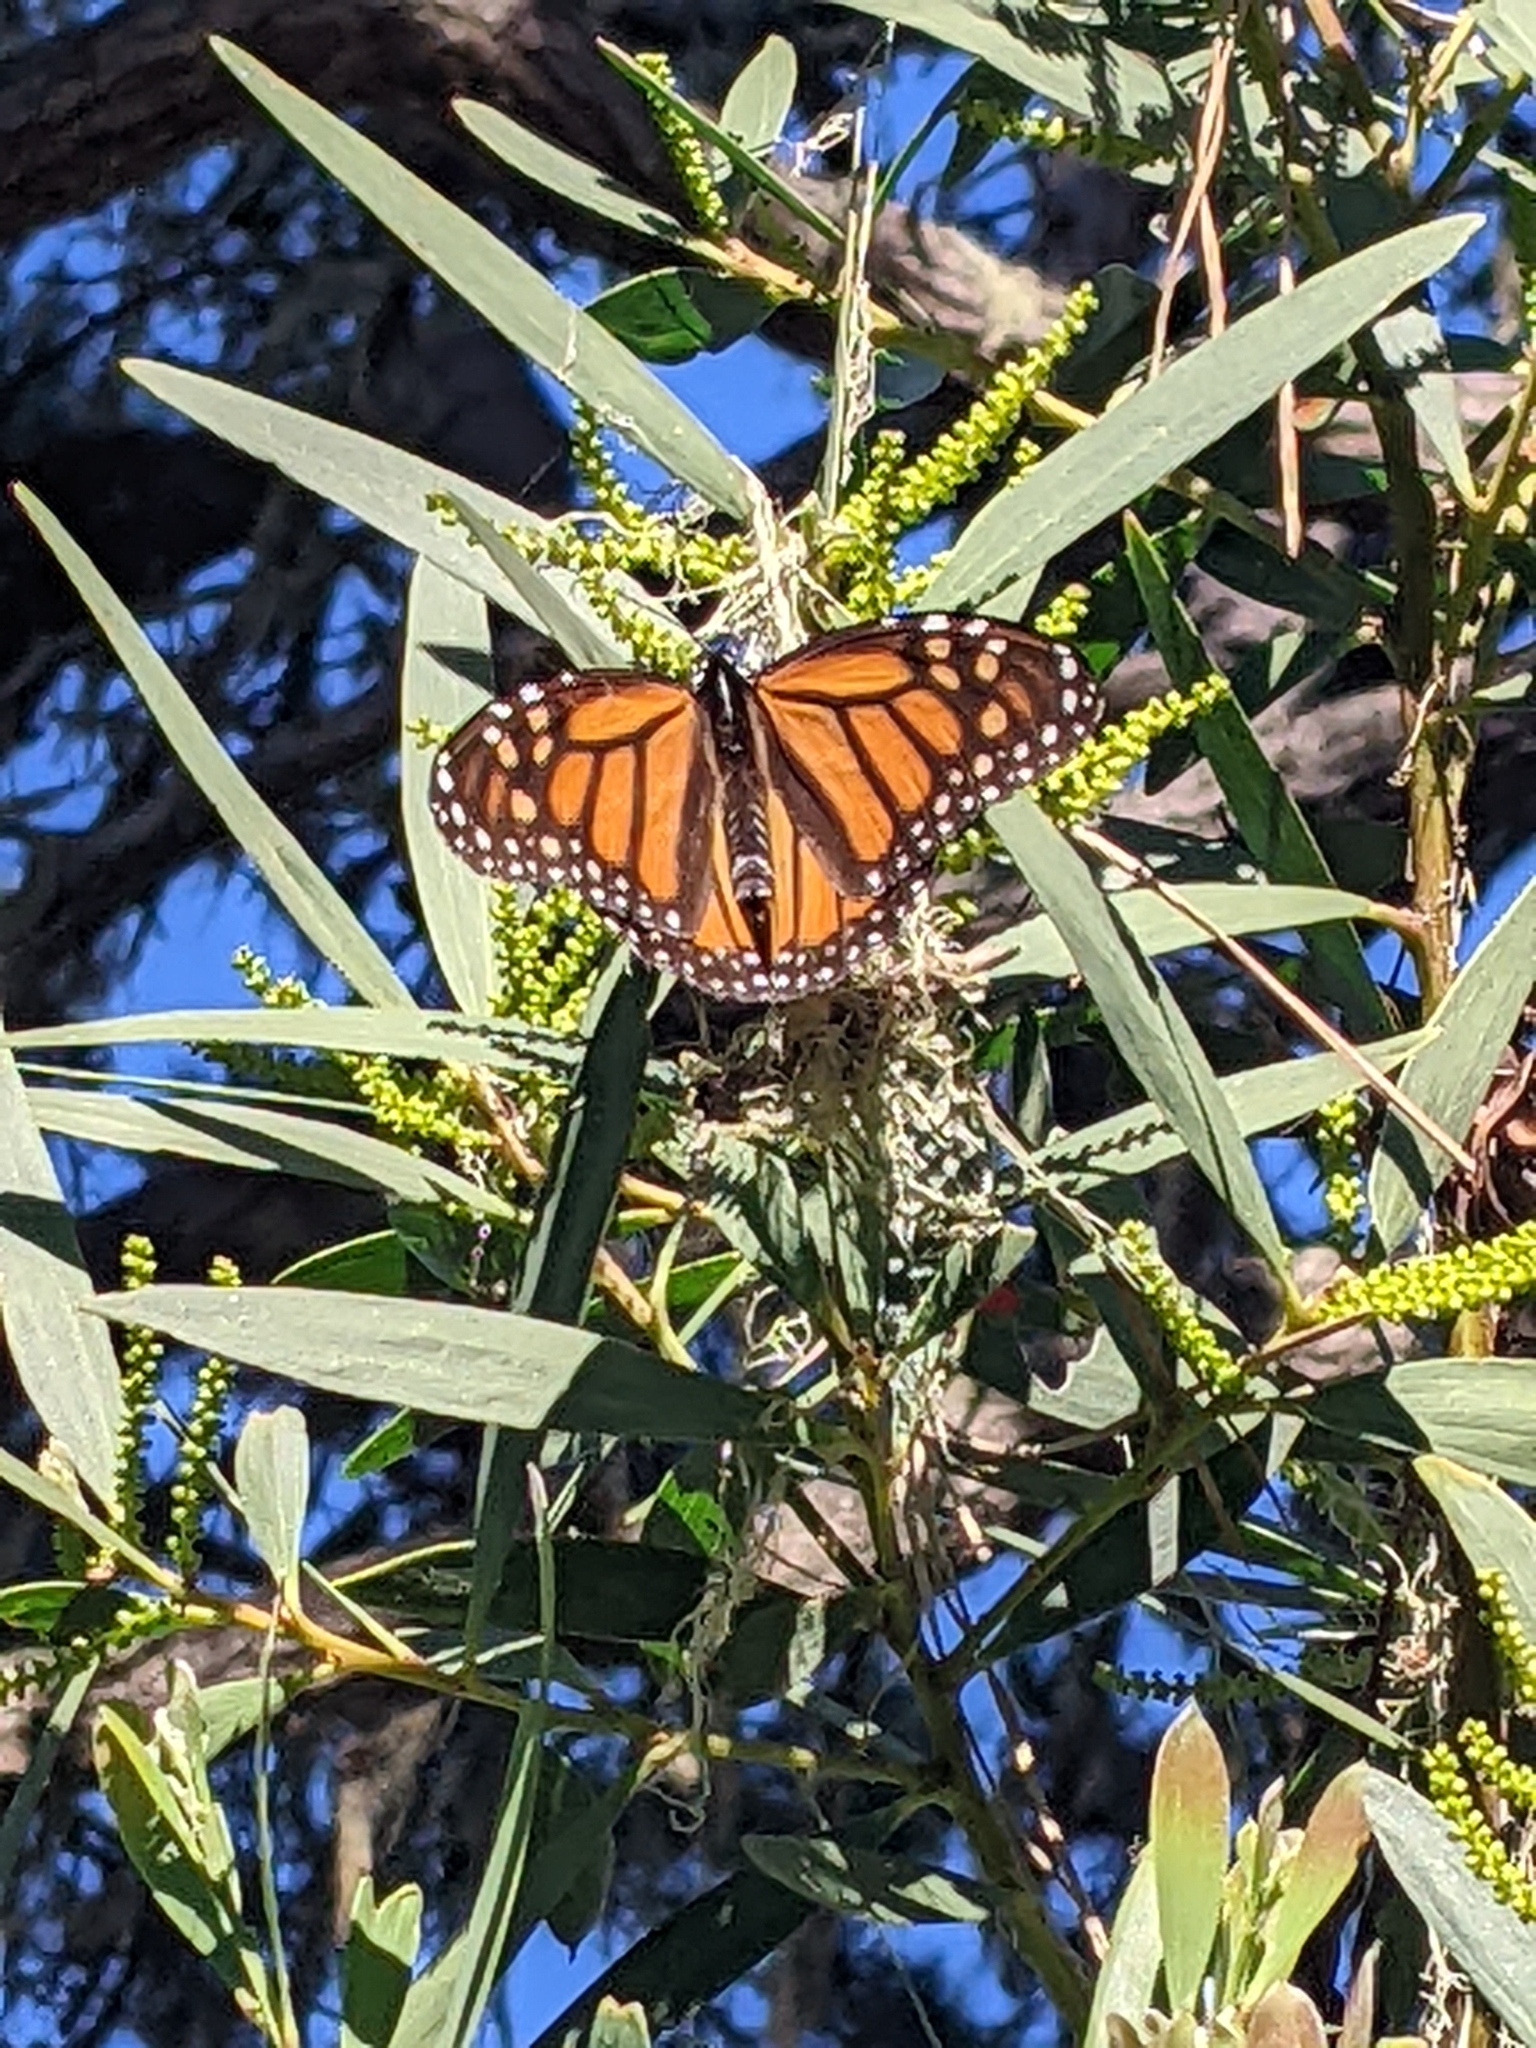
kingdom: Animalia
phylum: Arthropoda
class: Insecta
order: Lepidoptera
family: Nymphalidae
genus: Danaus
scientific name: Danaus plexippus
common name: Monarch
